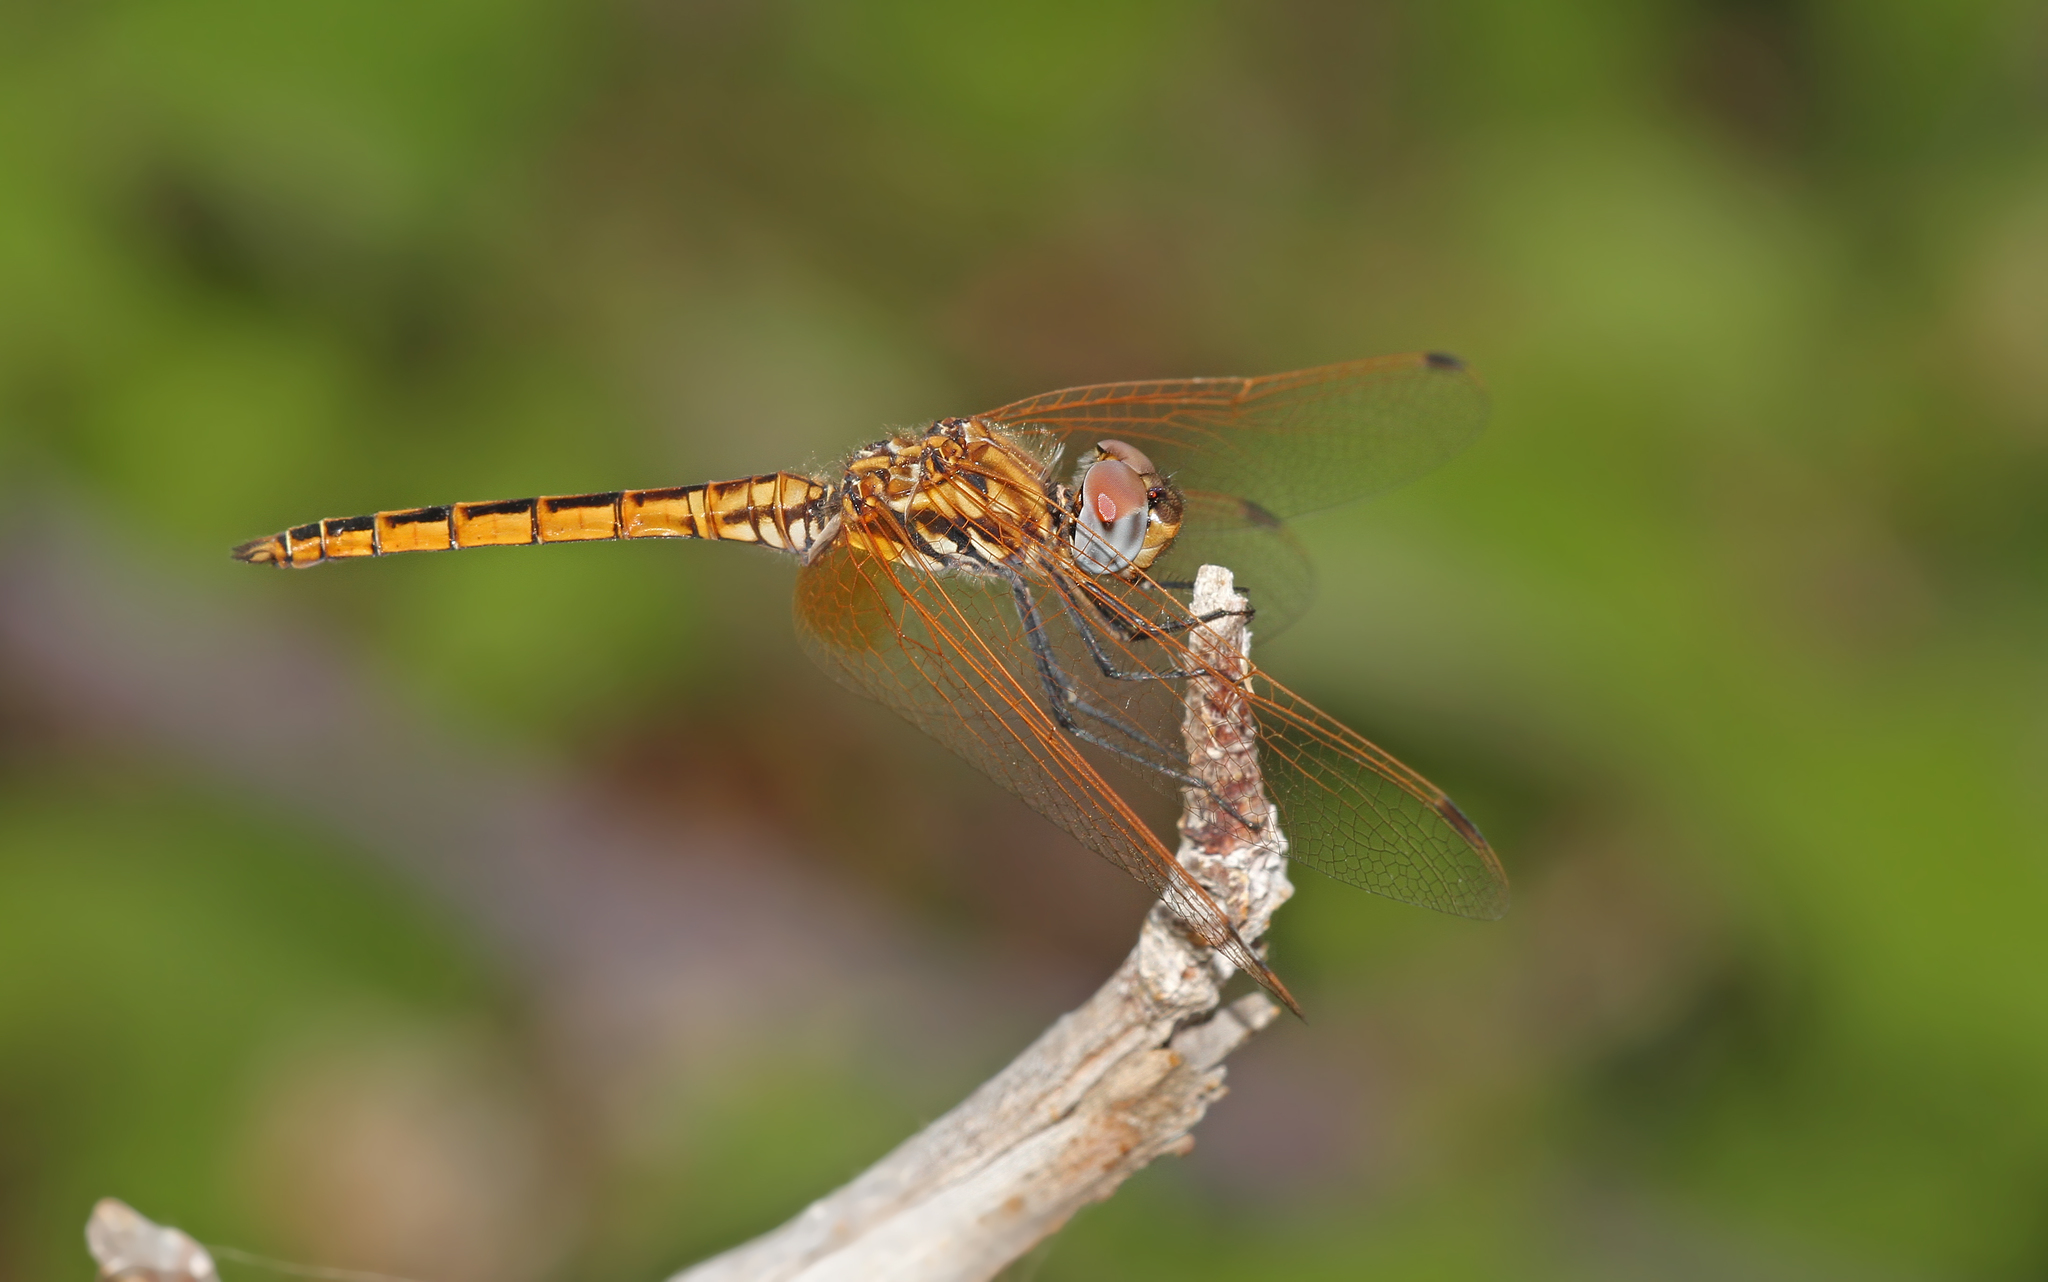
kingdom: Animalia
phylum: Arthropoda
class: Insecta
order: Odonata
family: Libellulidae
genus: Trithemis
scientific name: Trithemis annulata
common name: Violet dropwing
